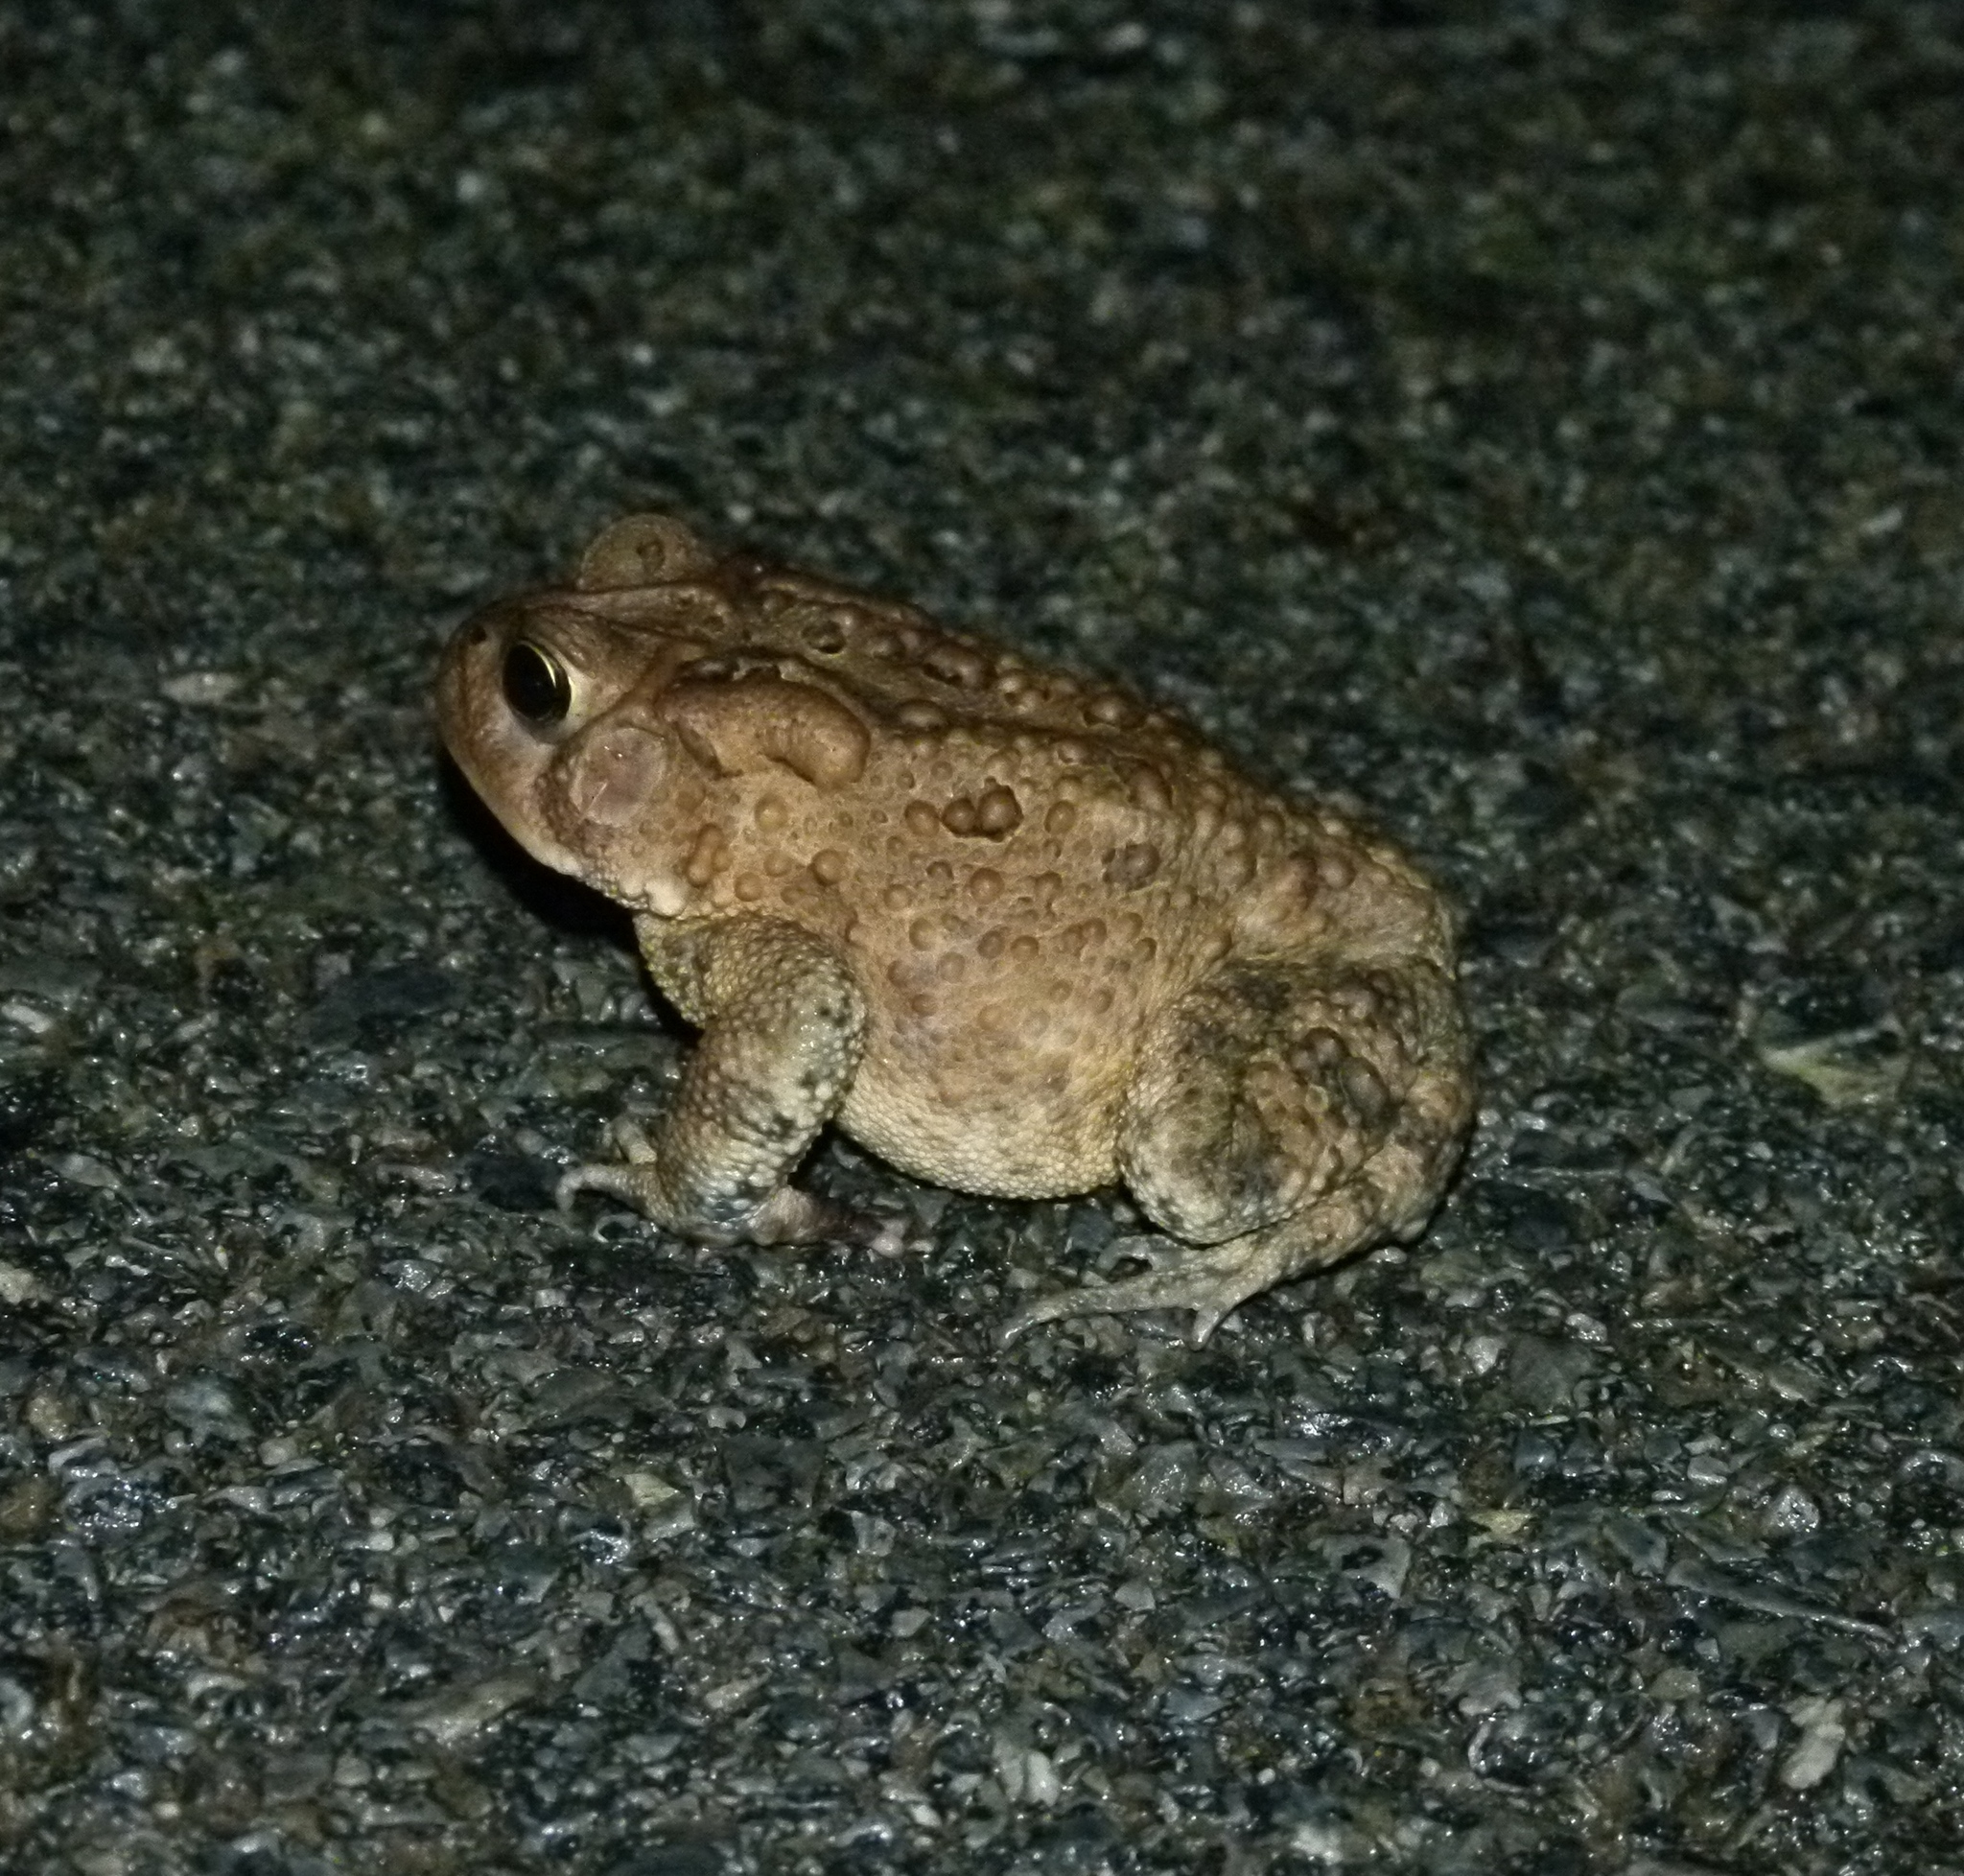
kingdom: Animalia
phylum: Chordata
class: Amphibia
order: Anura
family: Bufonidae
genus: Anaxyrus
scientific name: Anaxyrus americanus
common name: American toad
